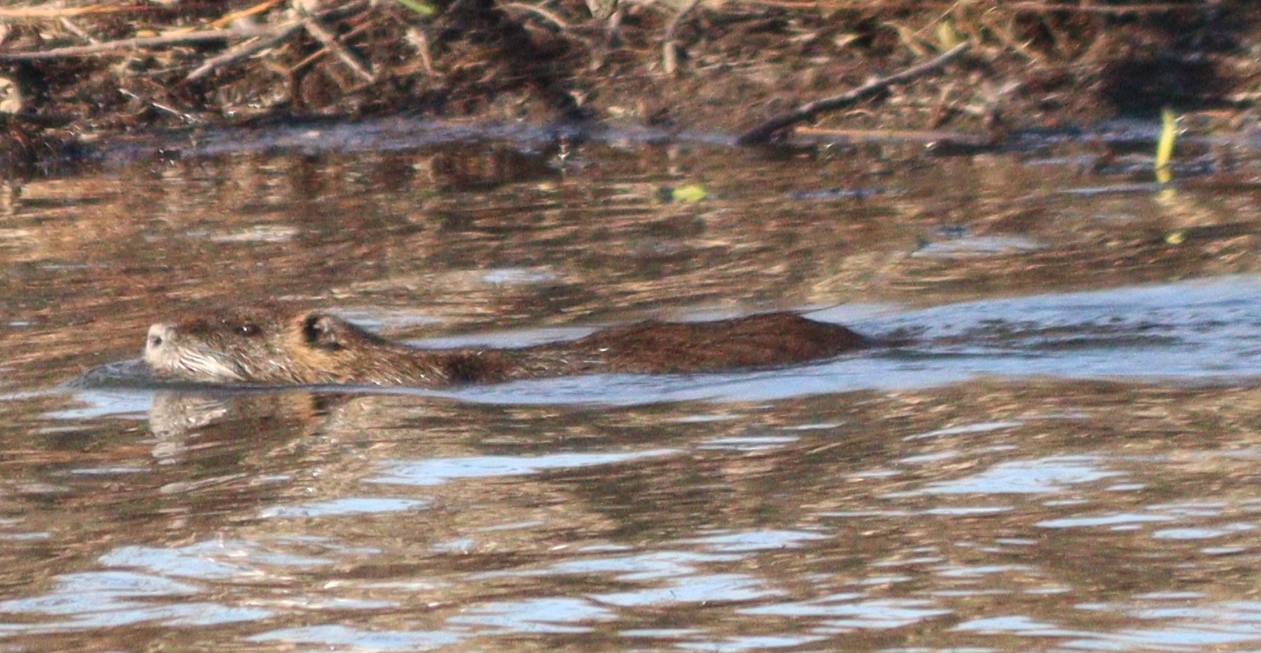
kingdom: Animalia
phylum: Chordata
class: Mammalia
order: Rodentia
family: Myocastoridae
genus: Myocastor
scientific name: Myocastor coypus
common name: Coypu
